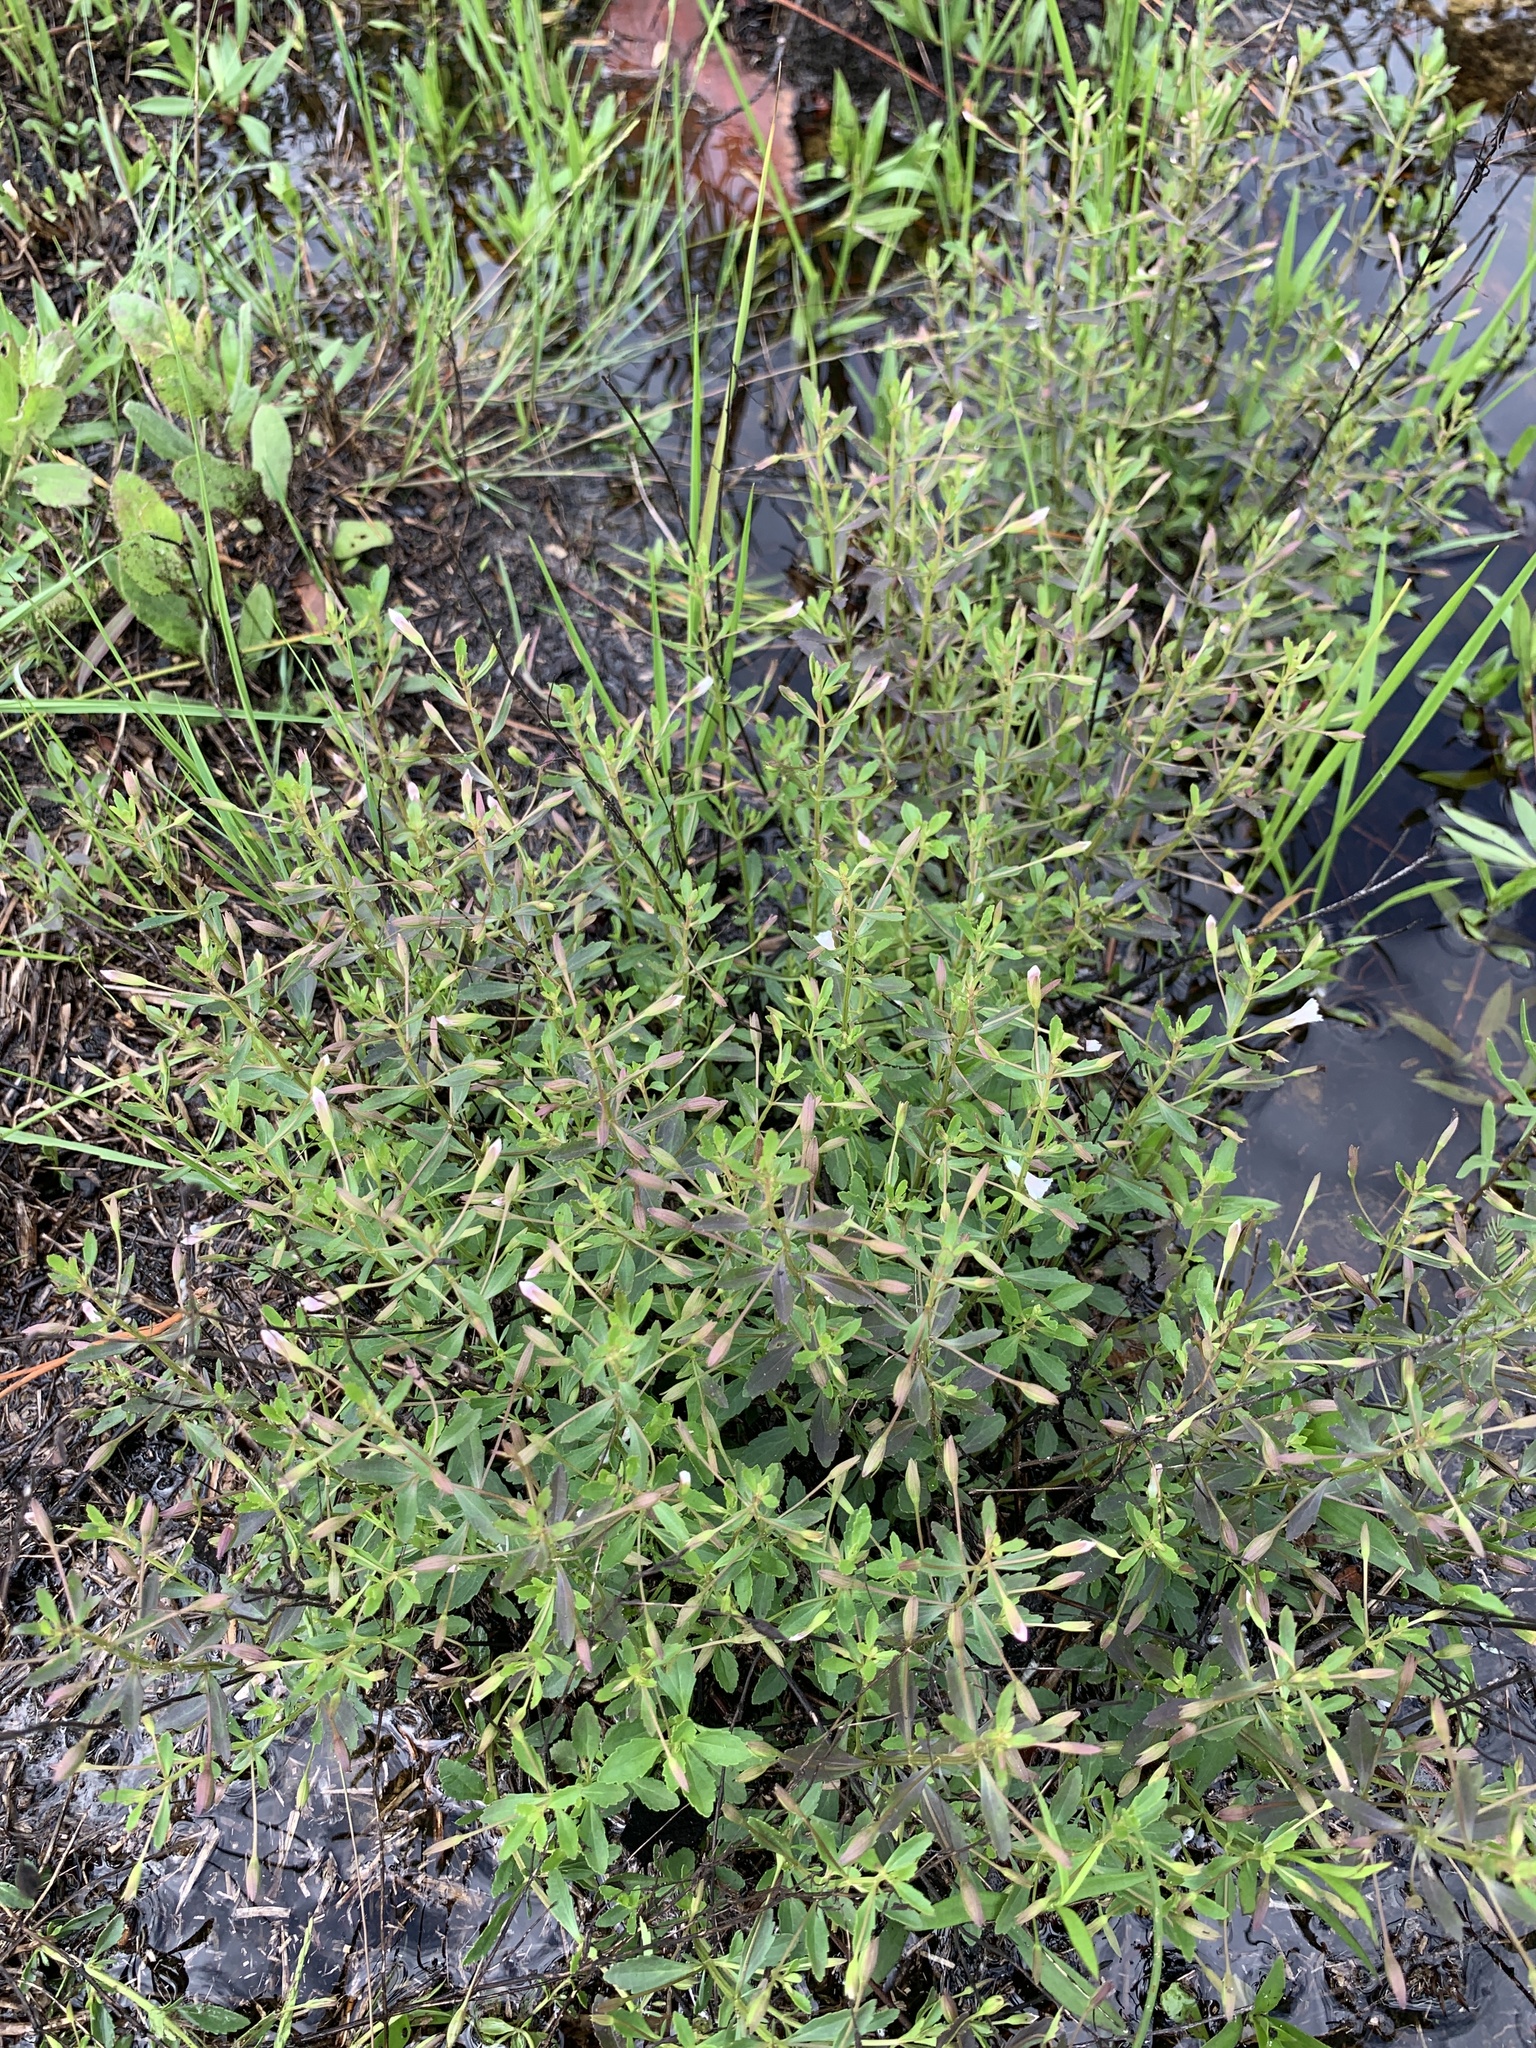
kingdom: Plantae
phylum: Tracheophyta
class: Magnoliopsida
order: Lamiales
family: Plantaginaceae
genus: Mecardonia
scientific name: Mecardonia acuminata
